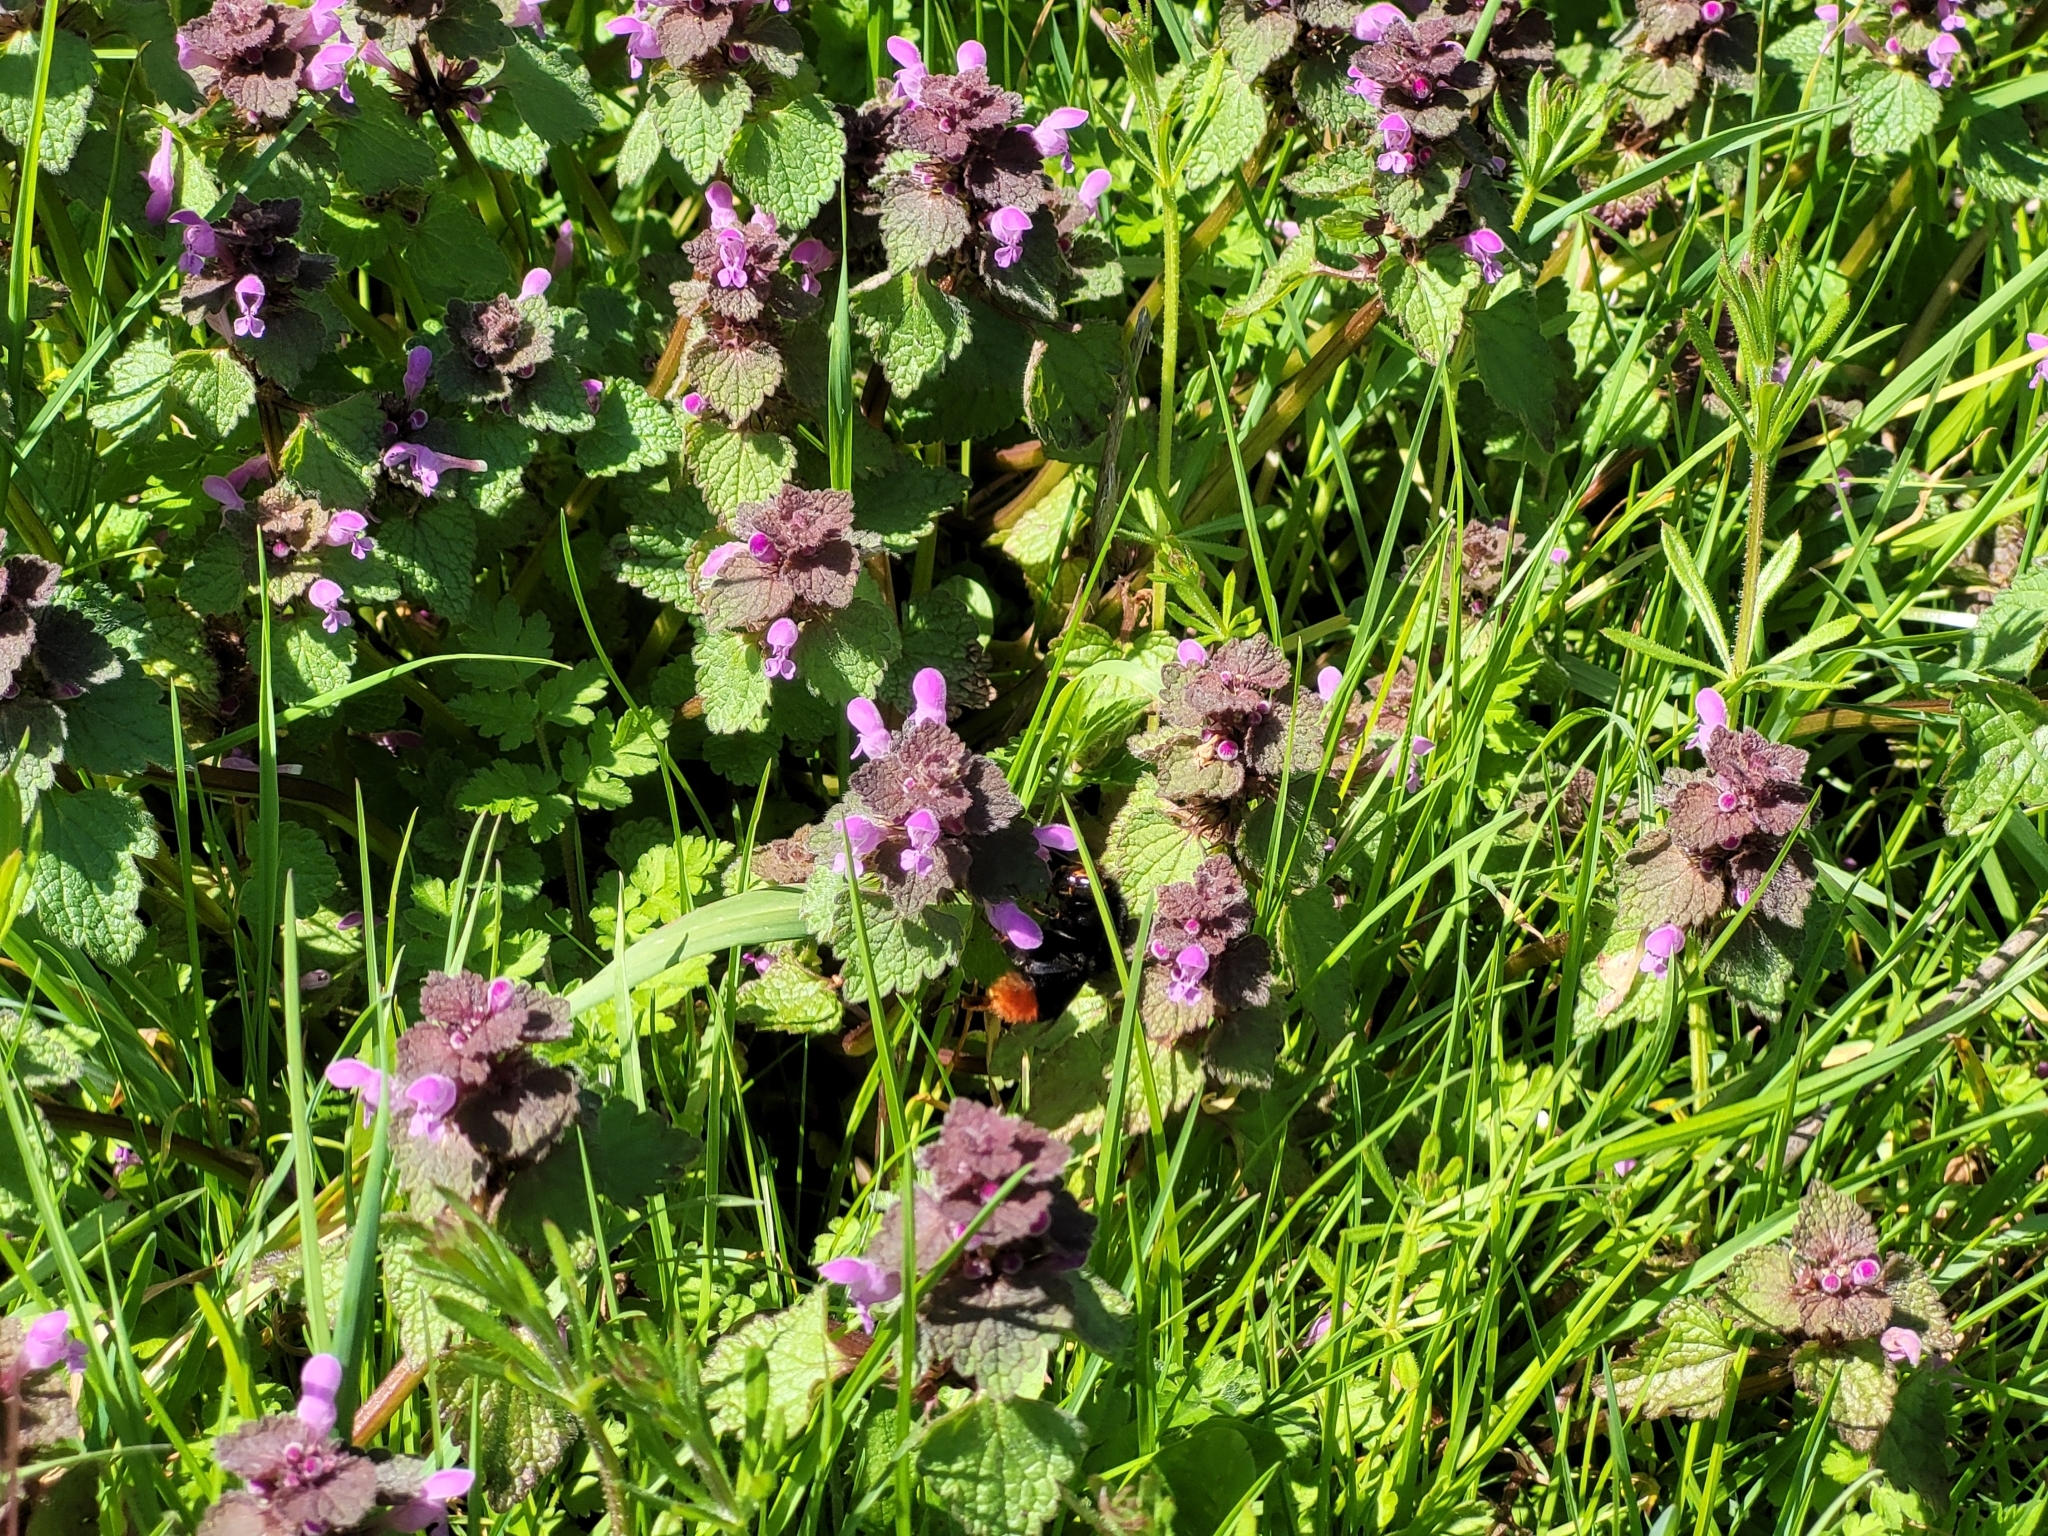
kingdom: Plantae
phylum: Tracheophyta
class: Magnoliopsida
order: Lamiales
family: Lamiaceae
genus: Lamium
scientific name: Lamium purpureum
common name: Red dead-nettle
